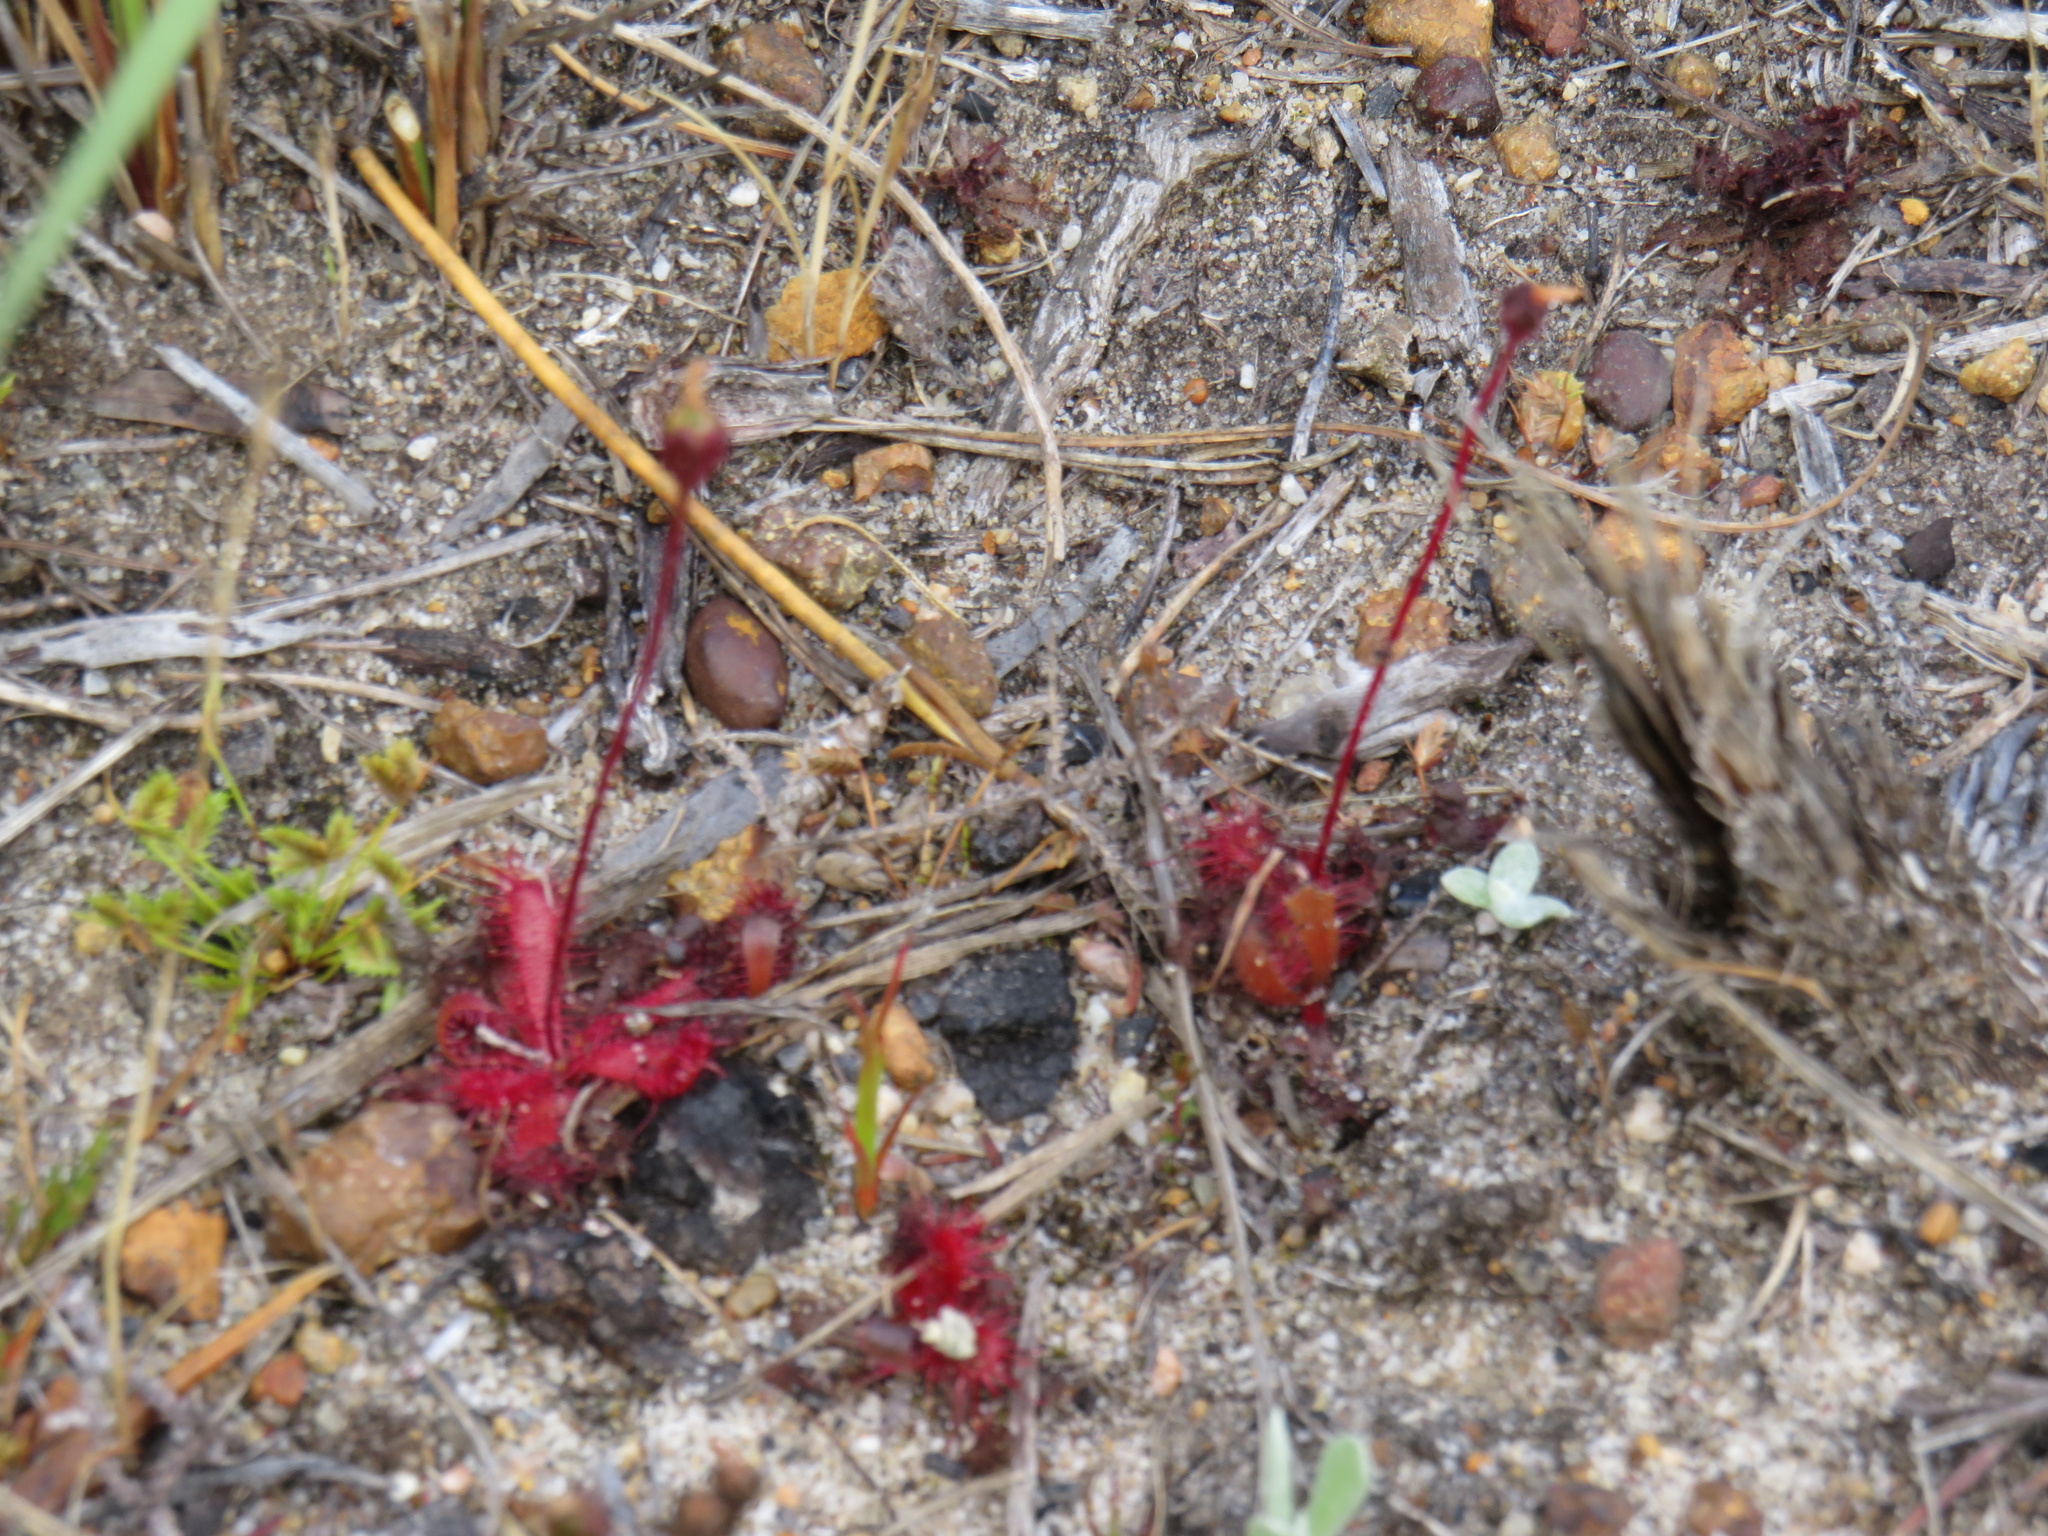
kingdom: Plantae
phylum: Tracheophyta
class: Magnoliopsida
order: Caryophyllales
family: Droseraceae
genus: Drosera
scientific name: Drosera trinervia
